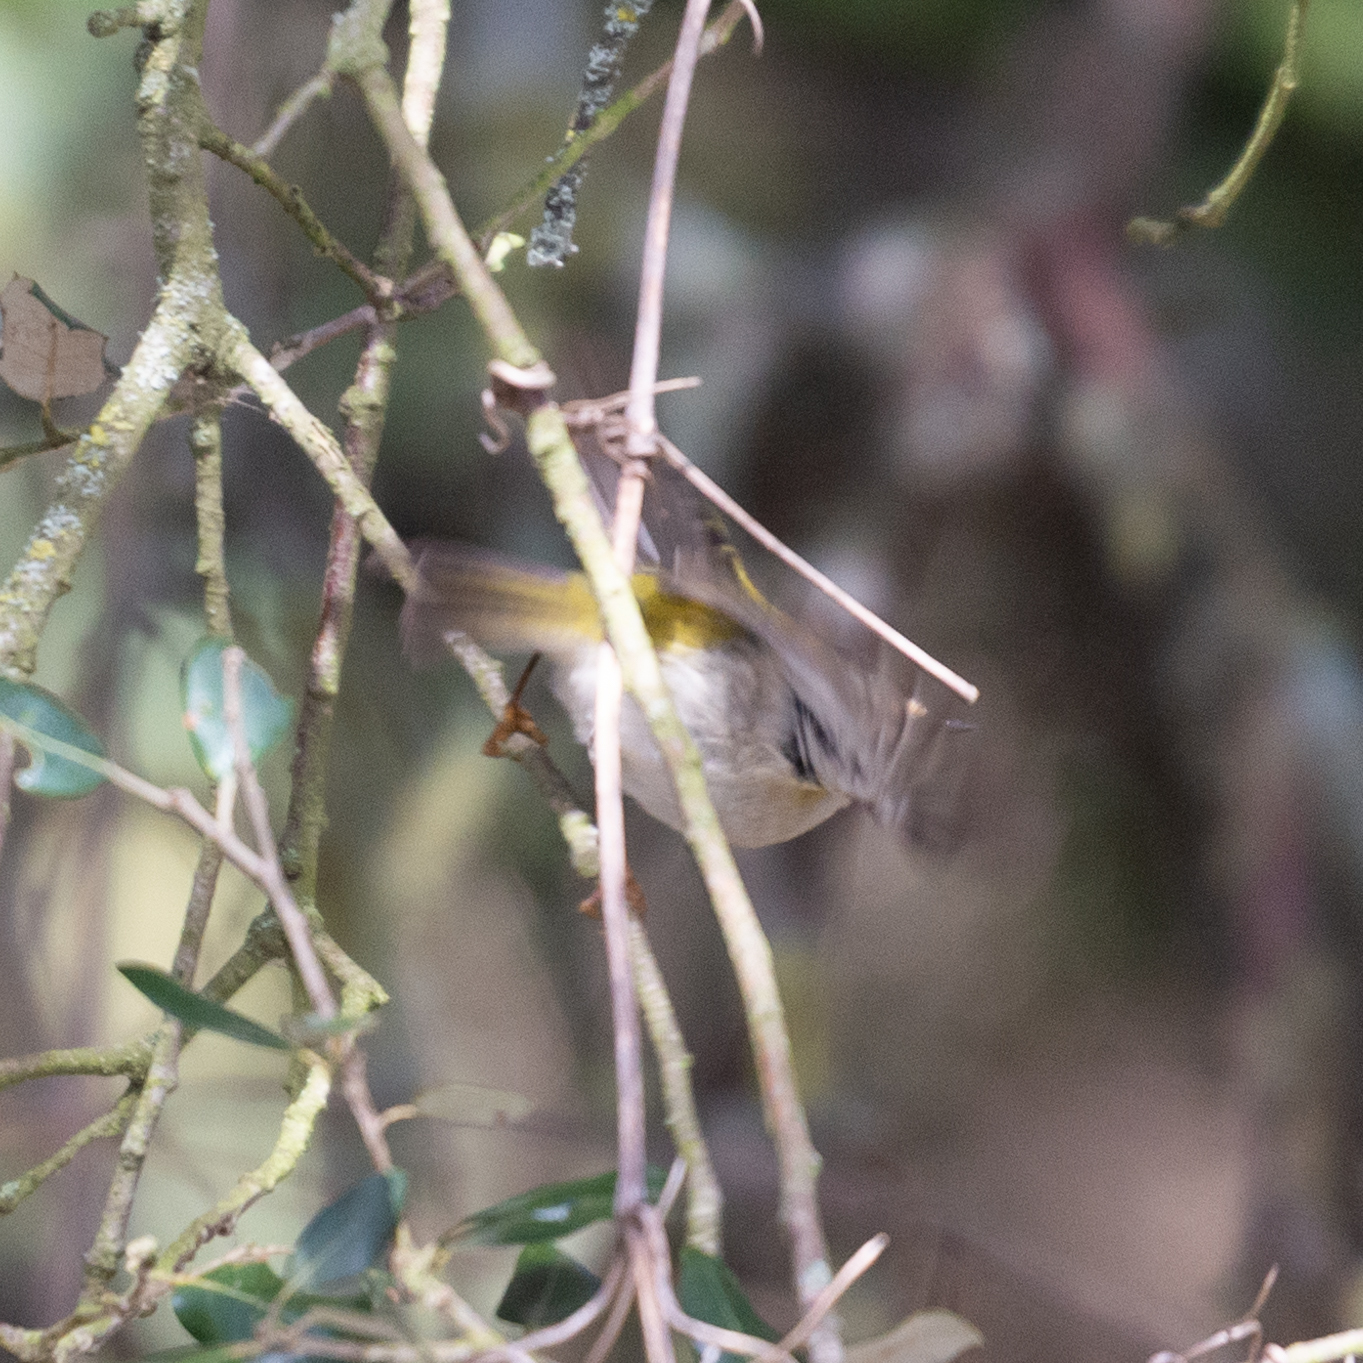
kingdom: Animalia
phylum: Chordata
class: Aves
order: Passeriformes
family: Regulidae
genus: Regulus
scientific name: Regulus ignicapilla
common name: Firecrest
